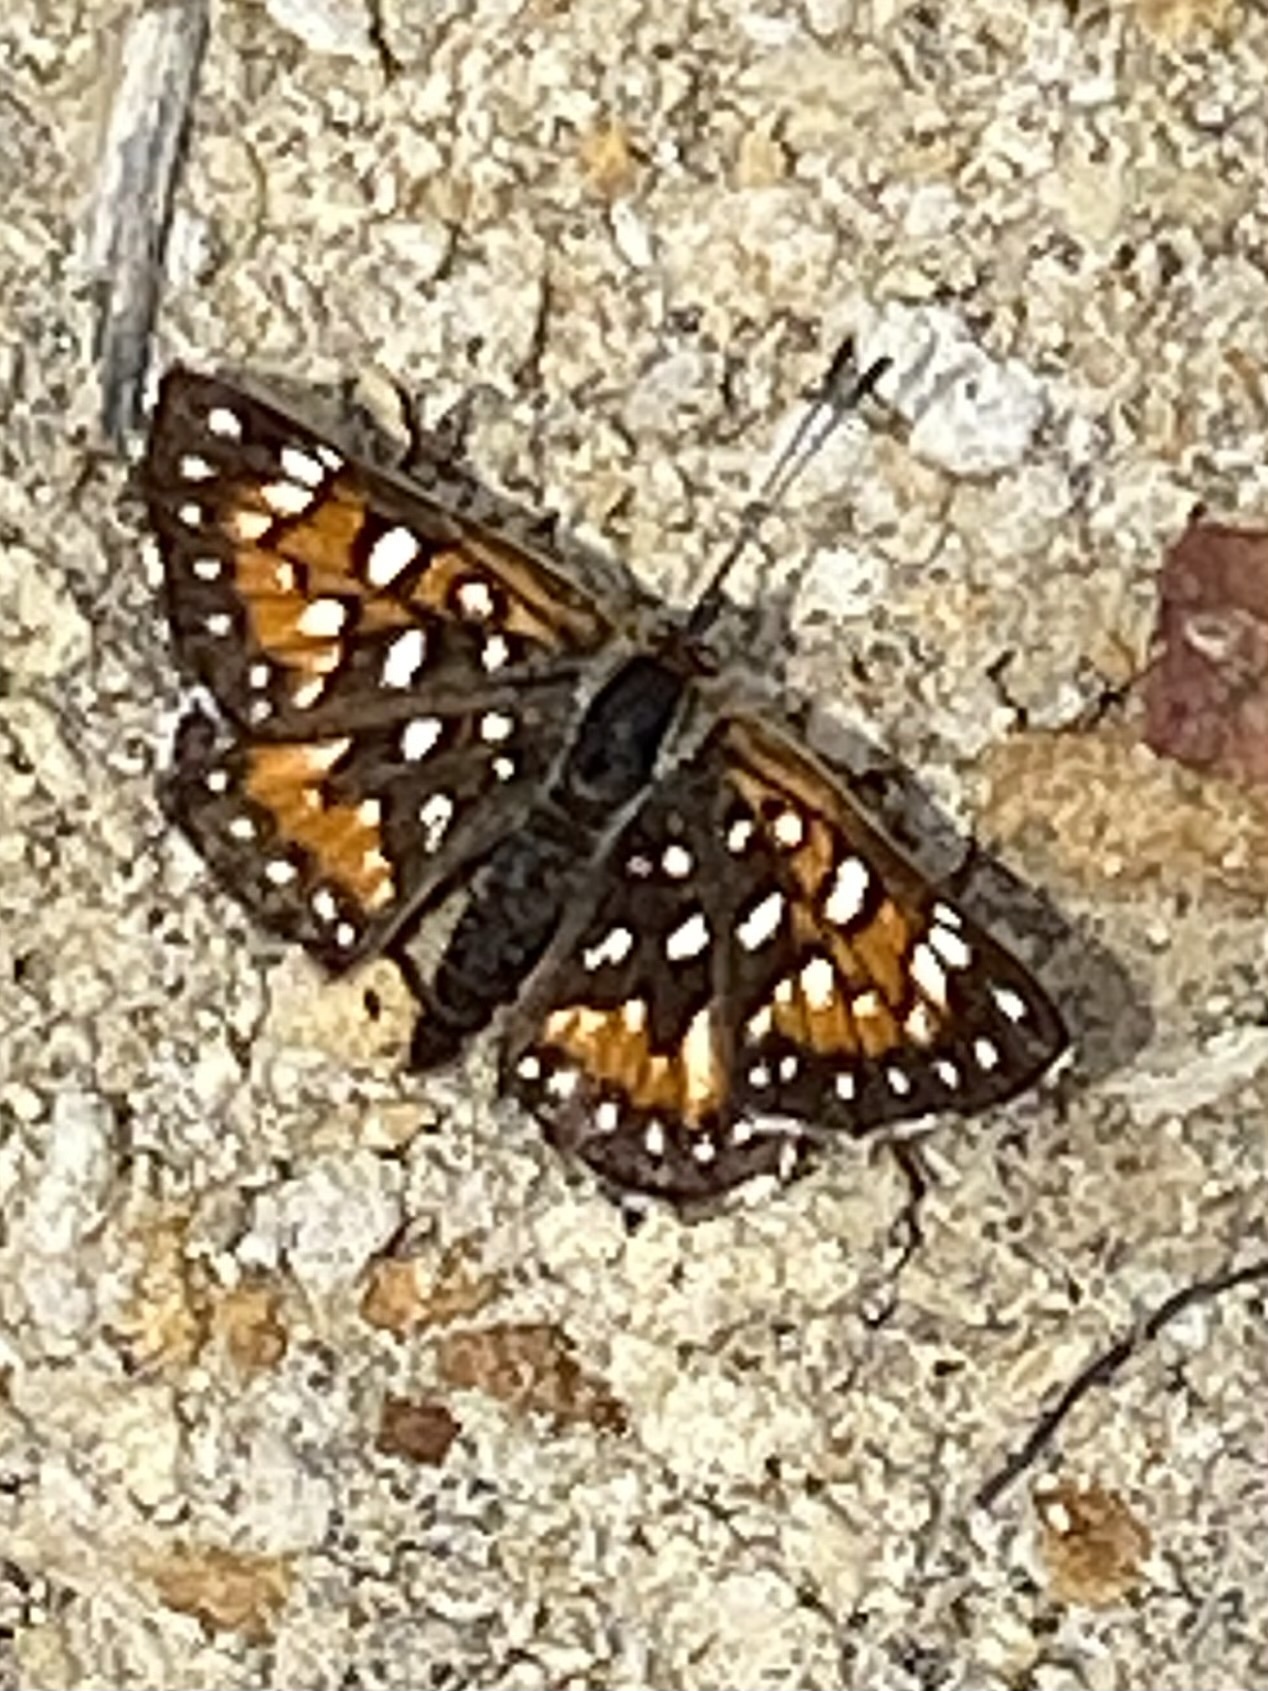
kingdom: Animalia
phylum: Arthropoda
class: Insecta
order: Lepidoptera
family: Riodinidae
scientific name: Riodinidae
